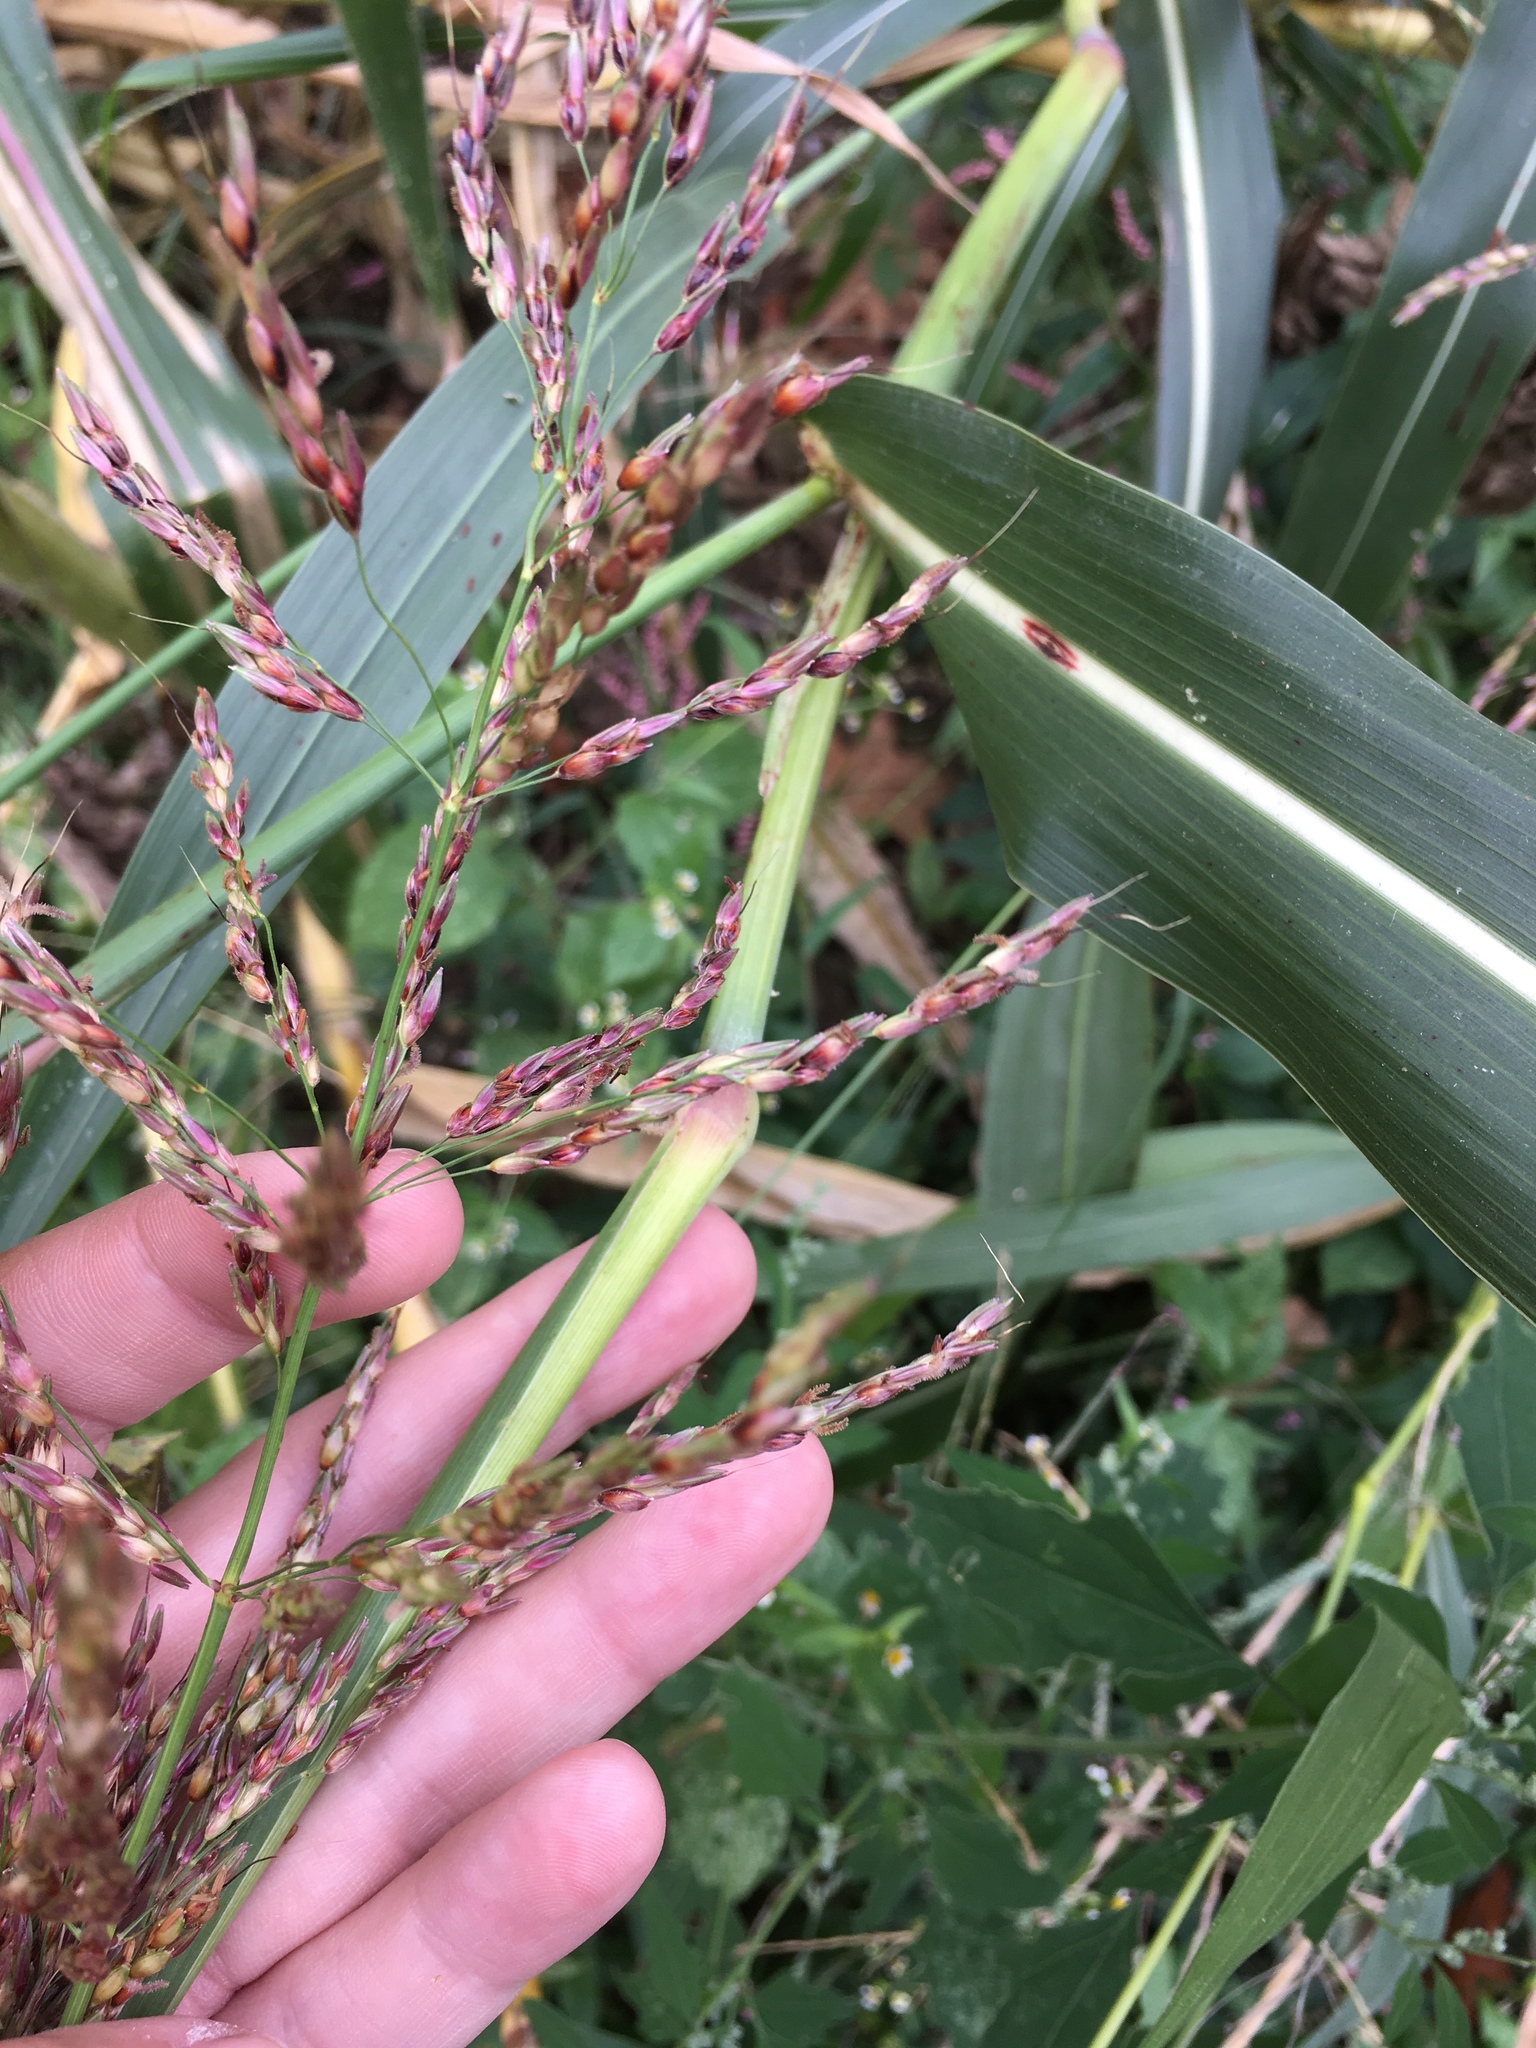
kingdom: Plantae
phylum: Tracheophyta
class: Liliopsida
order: Poales
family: Poaceae
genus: Sorghum
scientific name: Sorghum halepense
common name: Johnson-grass
